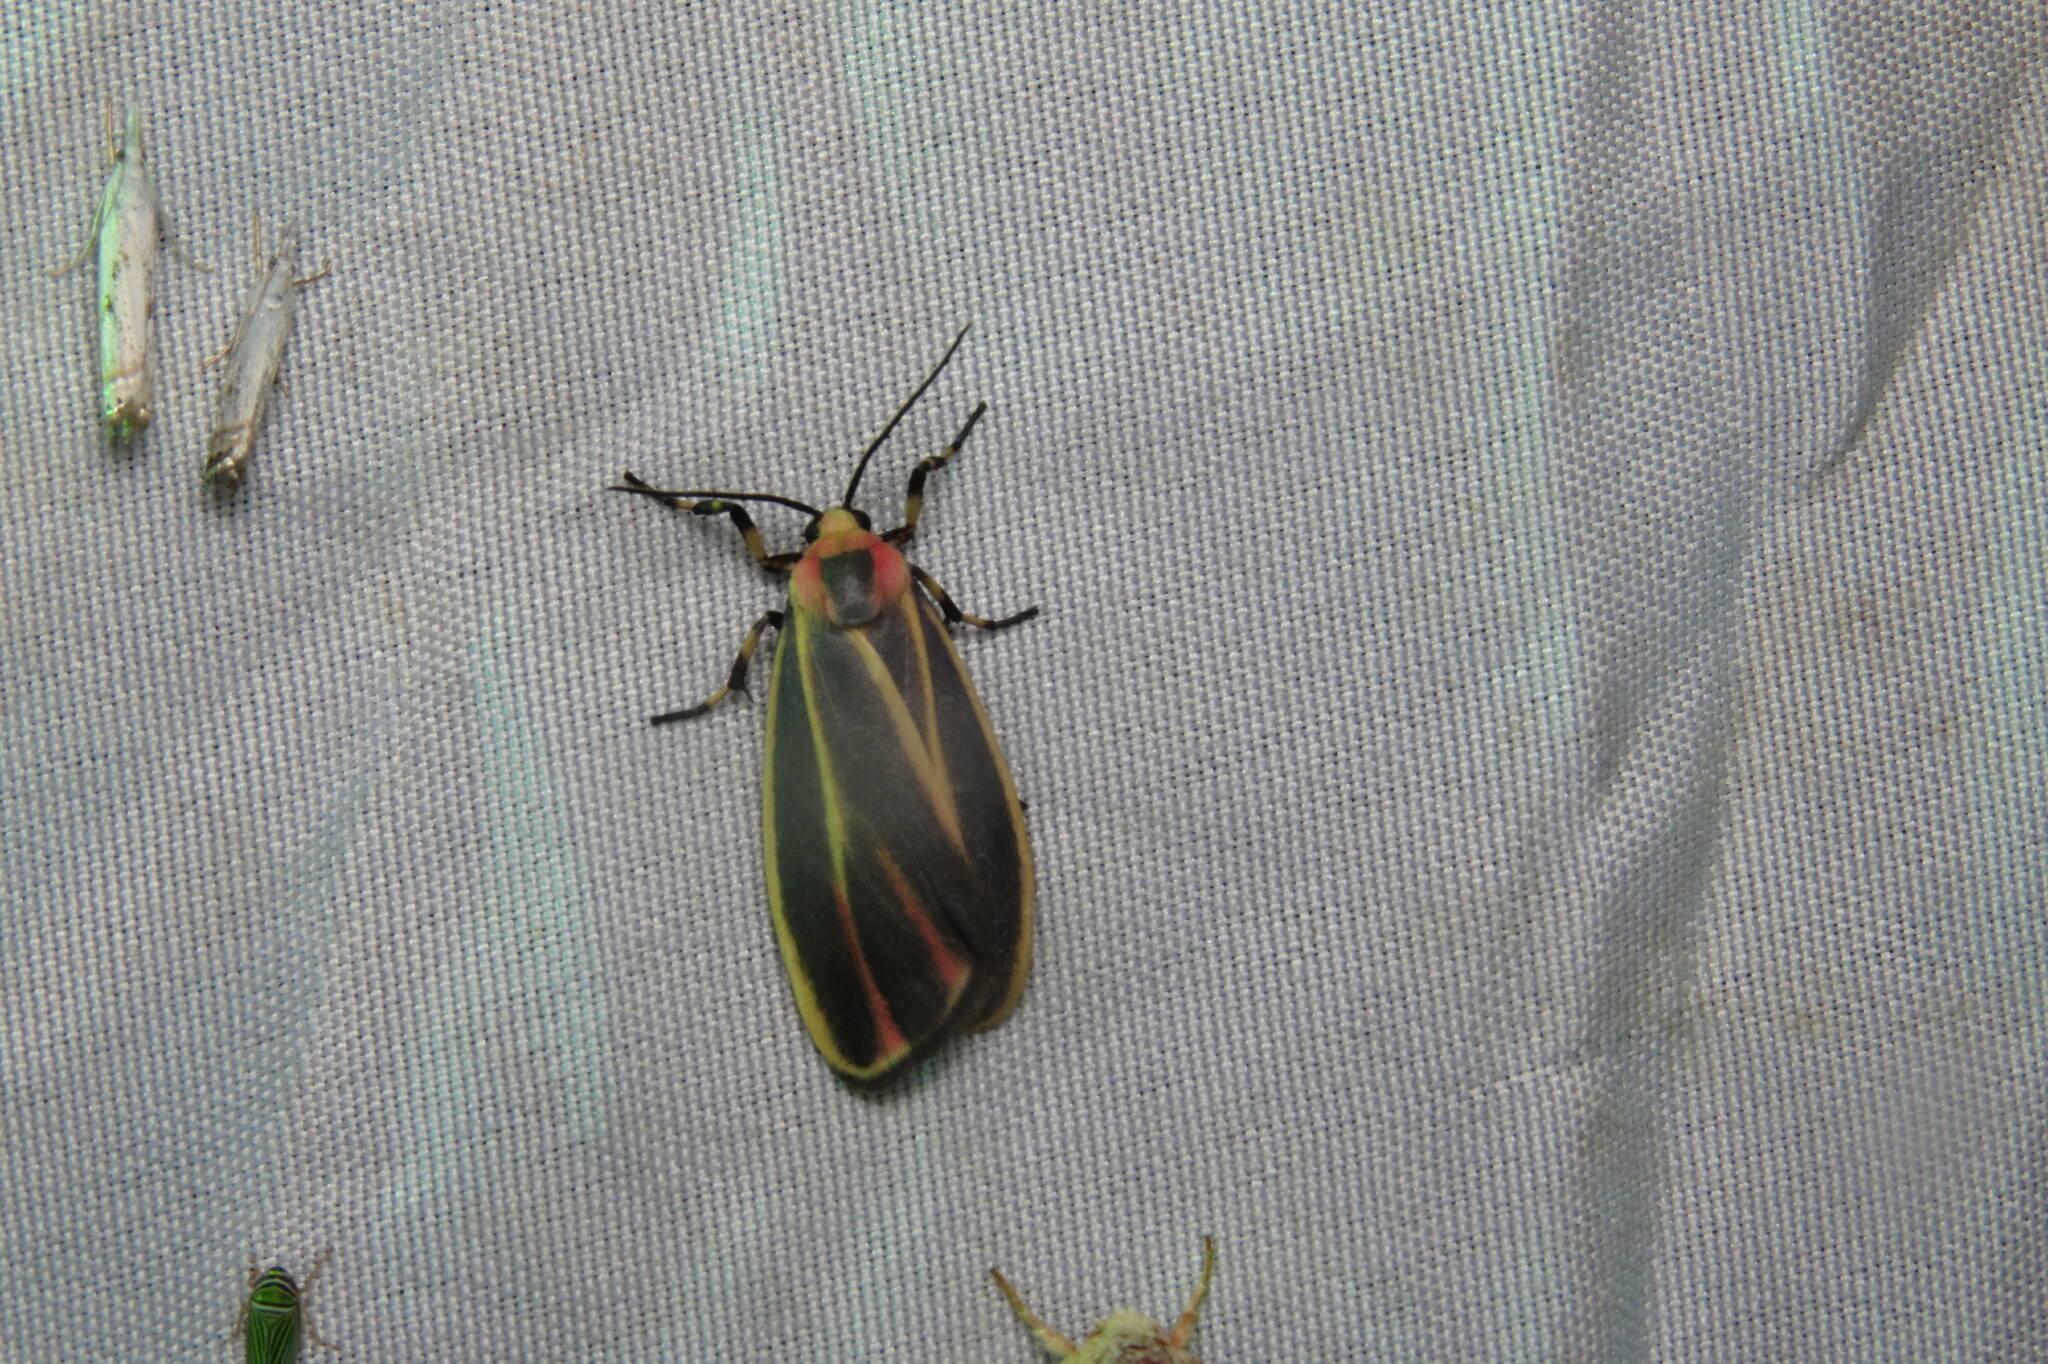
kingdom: Animalia
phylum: Arthropoda
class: Insecta
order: Lepidoptera
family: Erebidae
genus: Hypoprepia
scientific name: Hypoprepia fucosa
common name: Painted lichen moth
